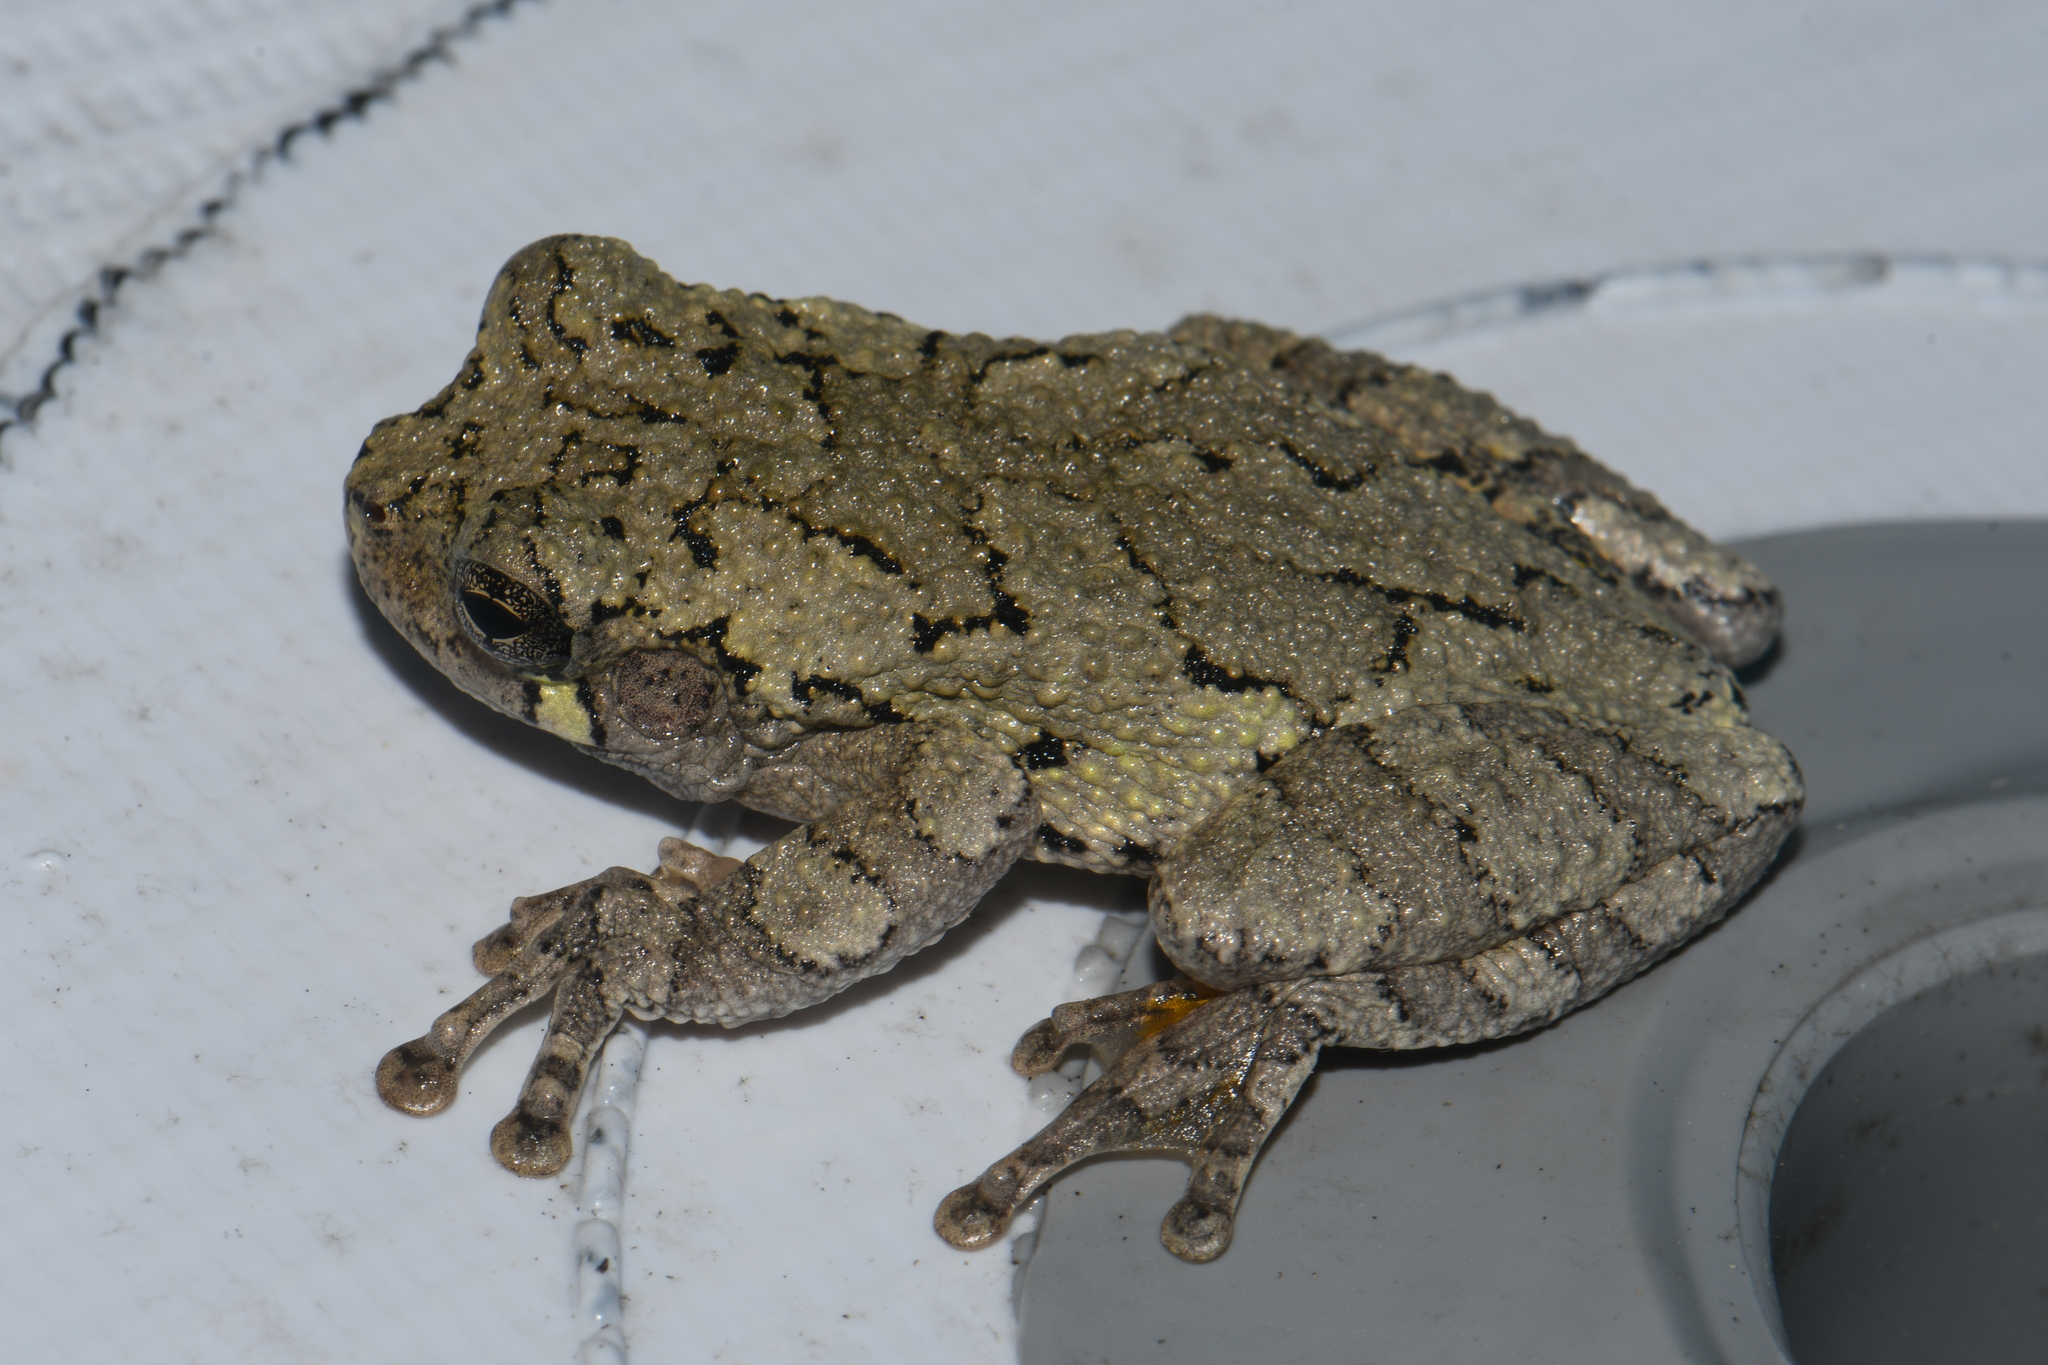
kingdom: Animalia
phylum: Chordata
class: Amphibia
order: Anura
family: Hylidae
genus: Dryophytes
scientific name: Dryophytes chrysoscelis
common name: Cope's gray treefrog
